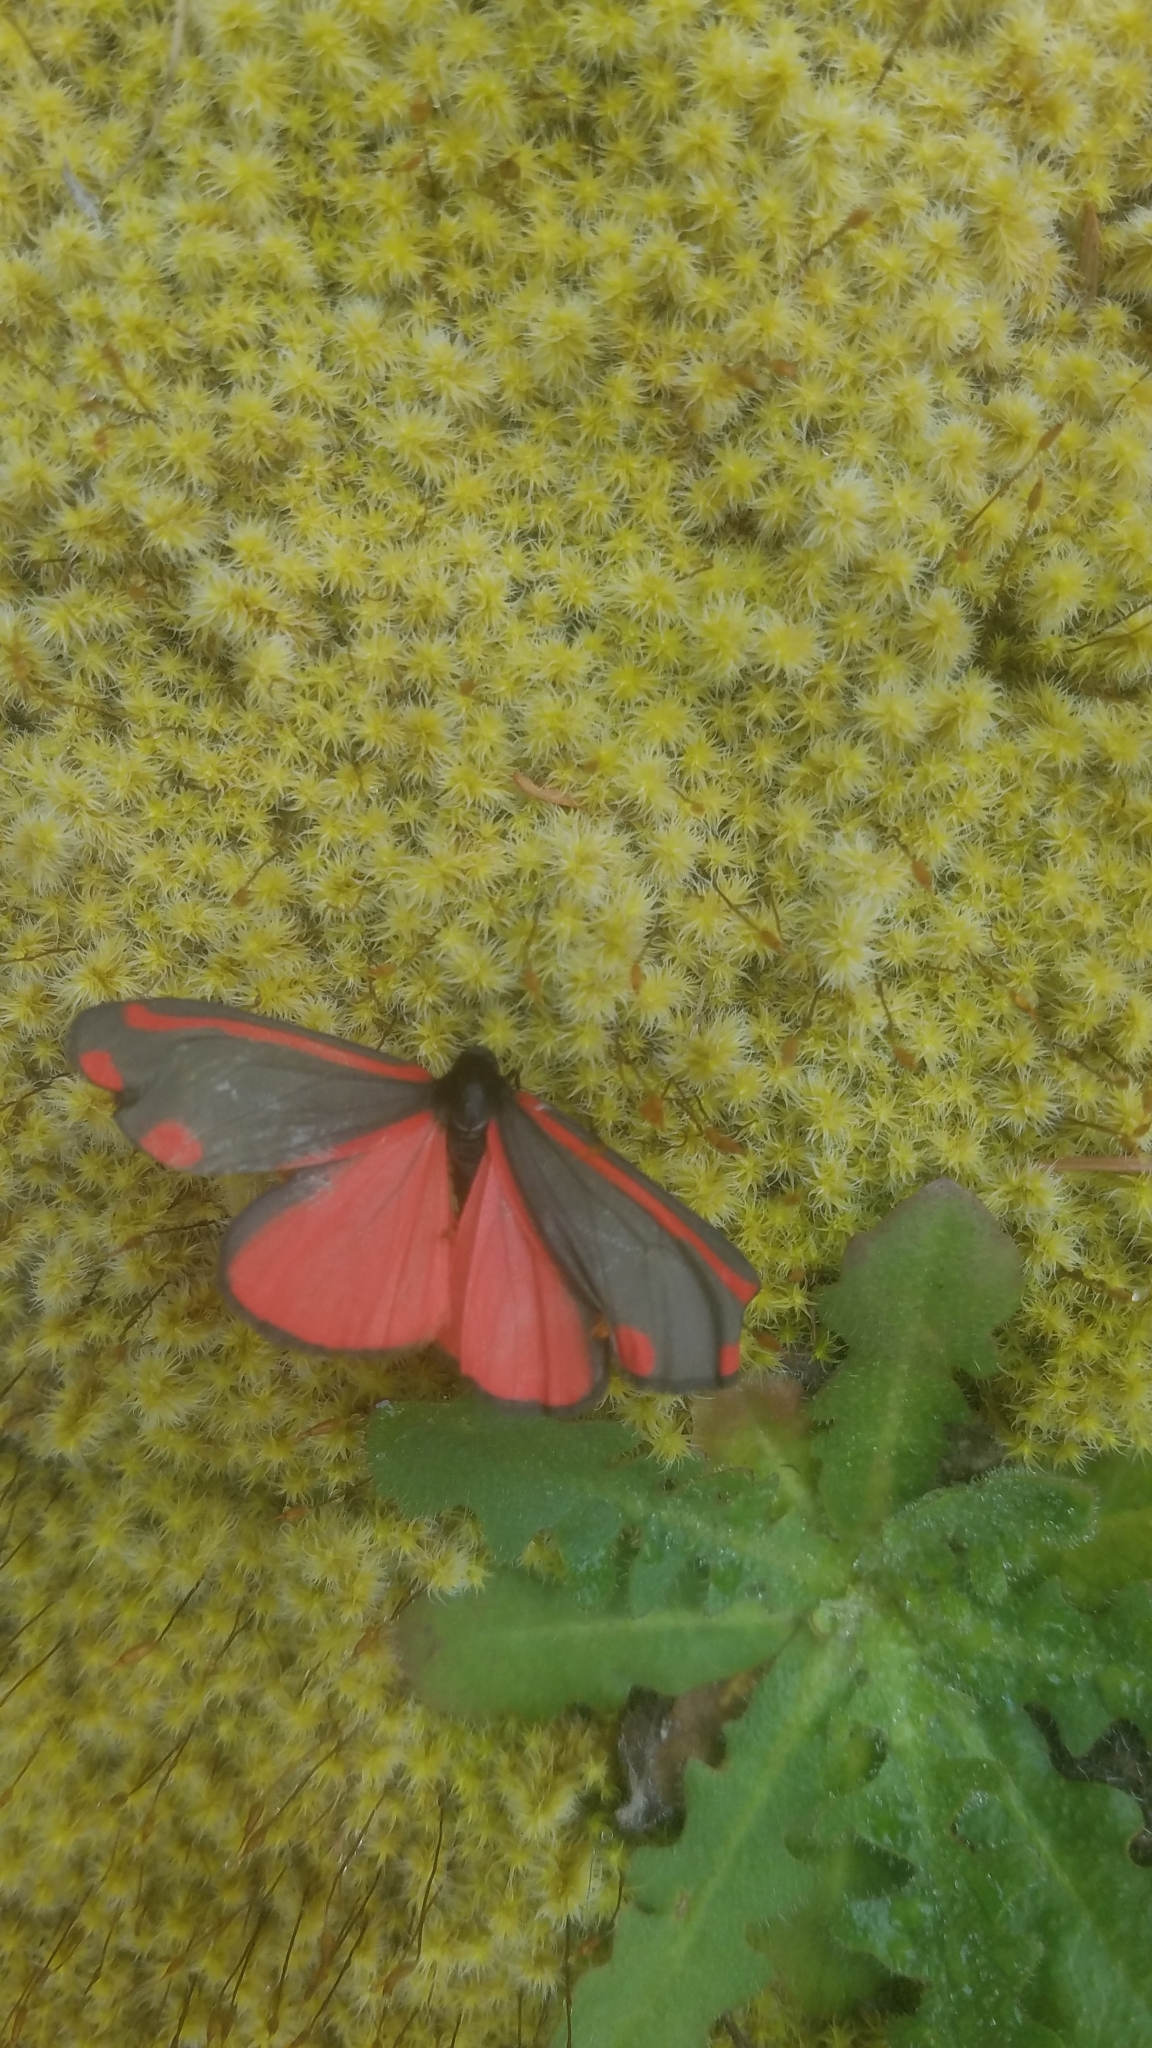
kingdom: Animalia
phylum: Arthropoda
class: Insecta
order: Lepidoptera
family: Erebidae
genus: Tyria
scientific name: Tyria jacobaeae
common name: Cinnabar
